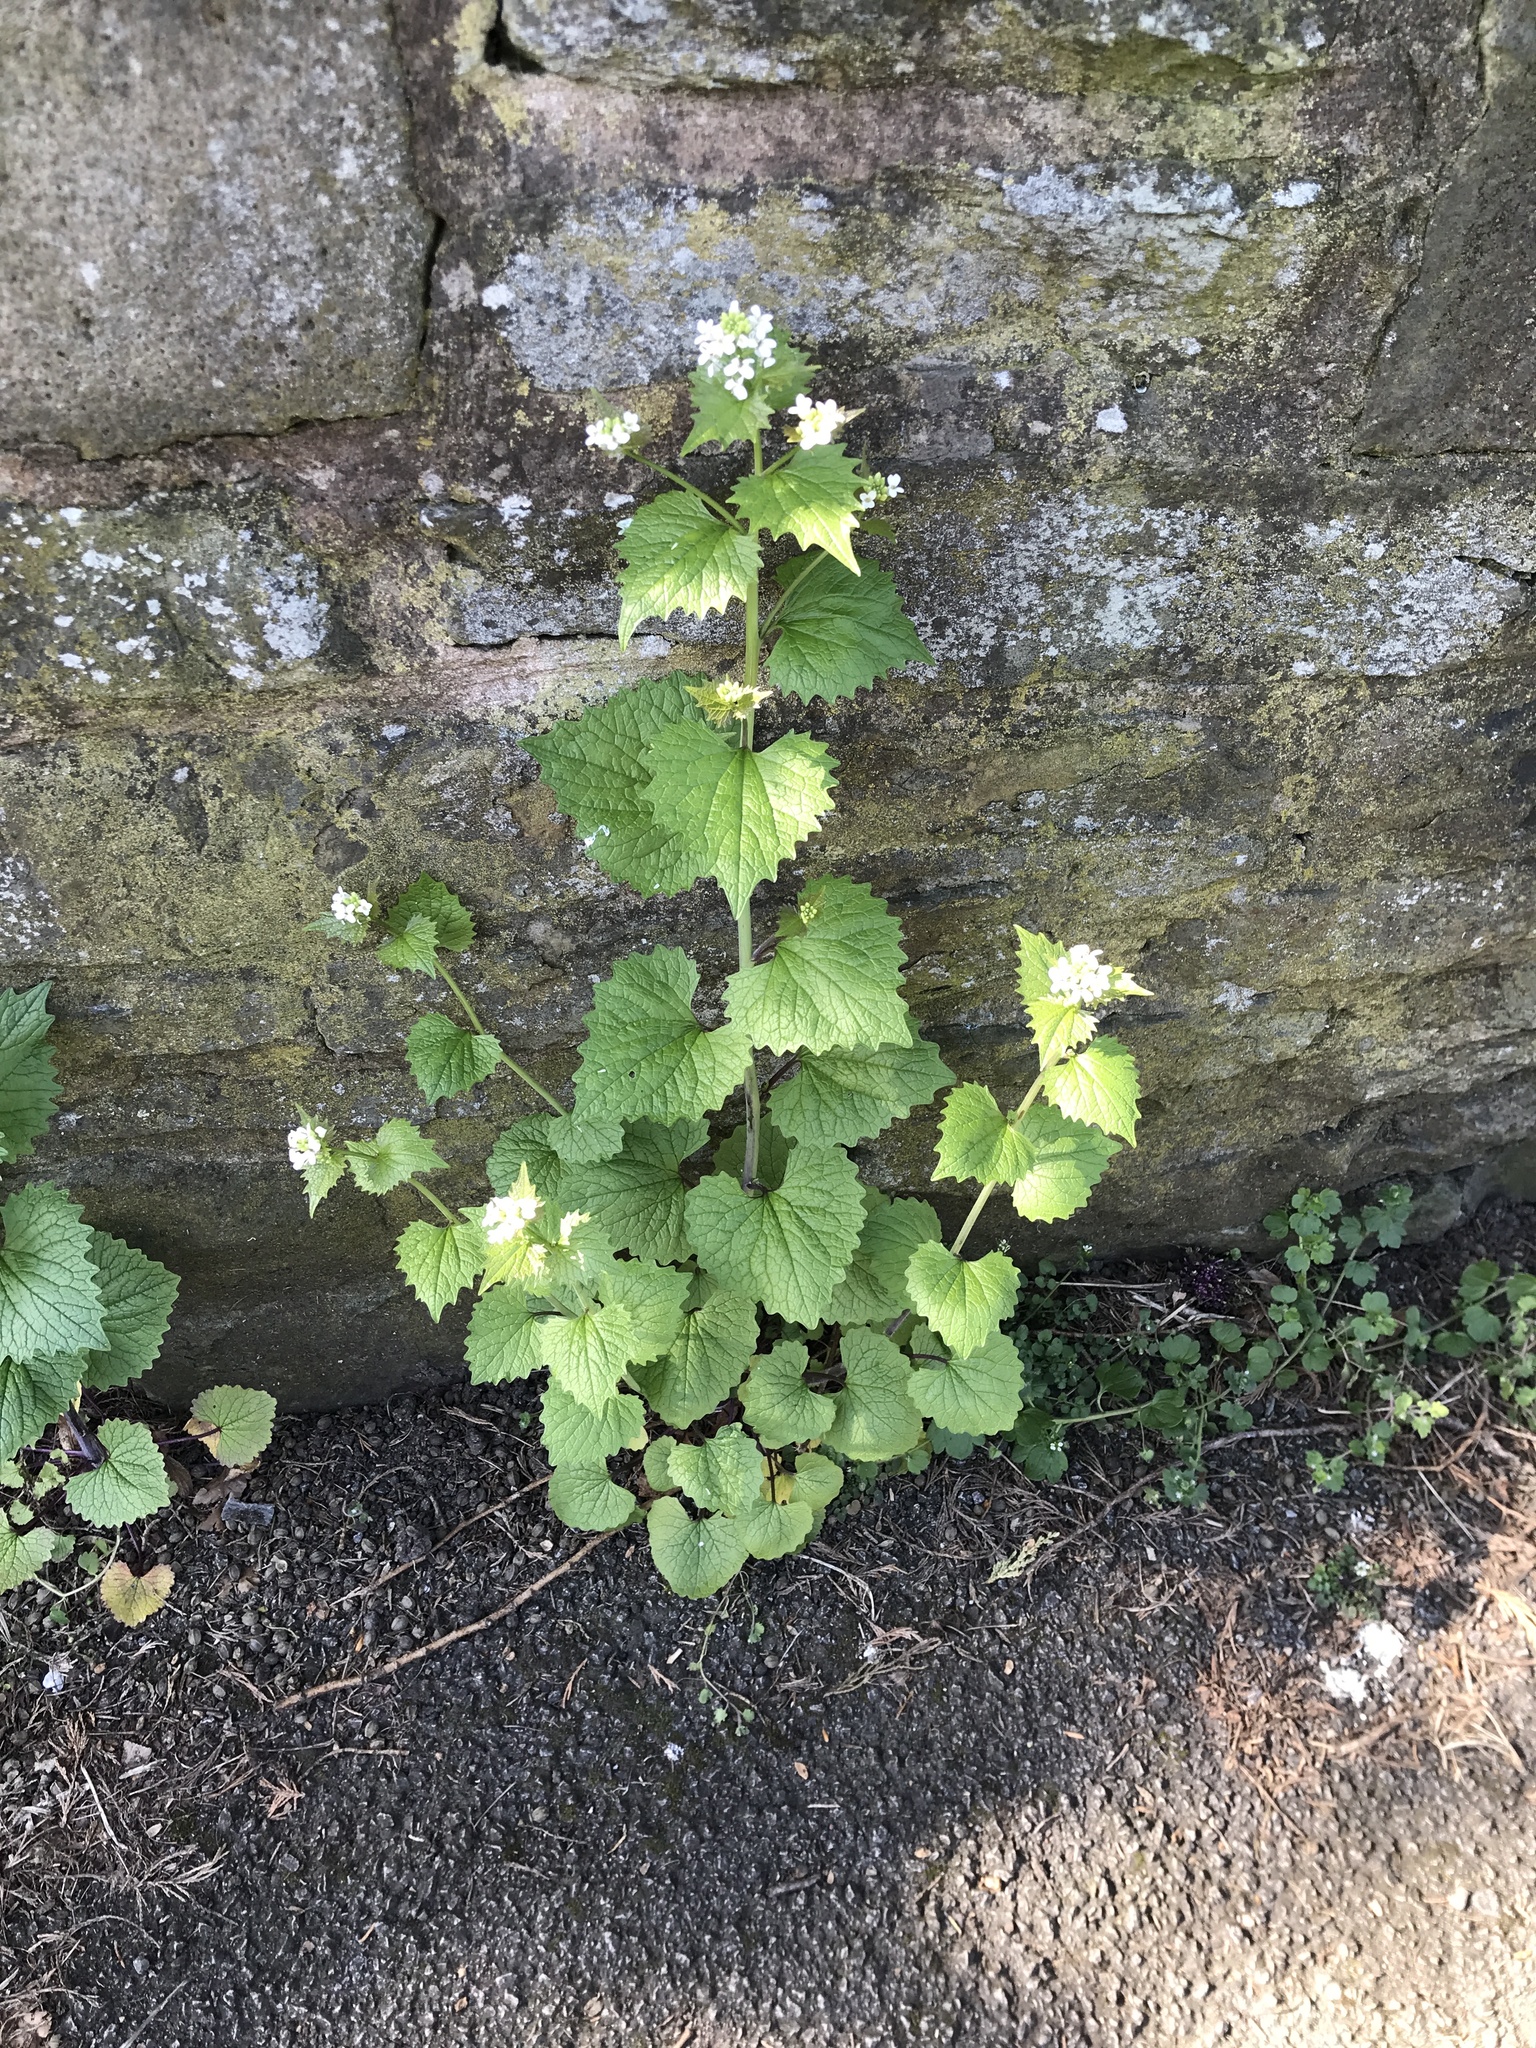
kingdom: Plantae
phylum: Tracheophyta
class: Magnoliopsida
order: Brassicales
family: Brassicaceae
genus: Alliaria
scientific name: Alliaria petiolata
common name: Garlic mustard
